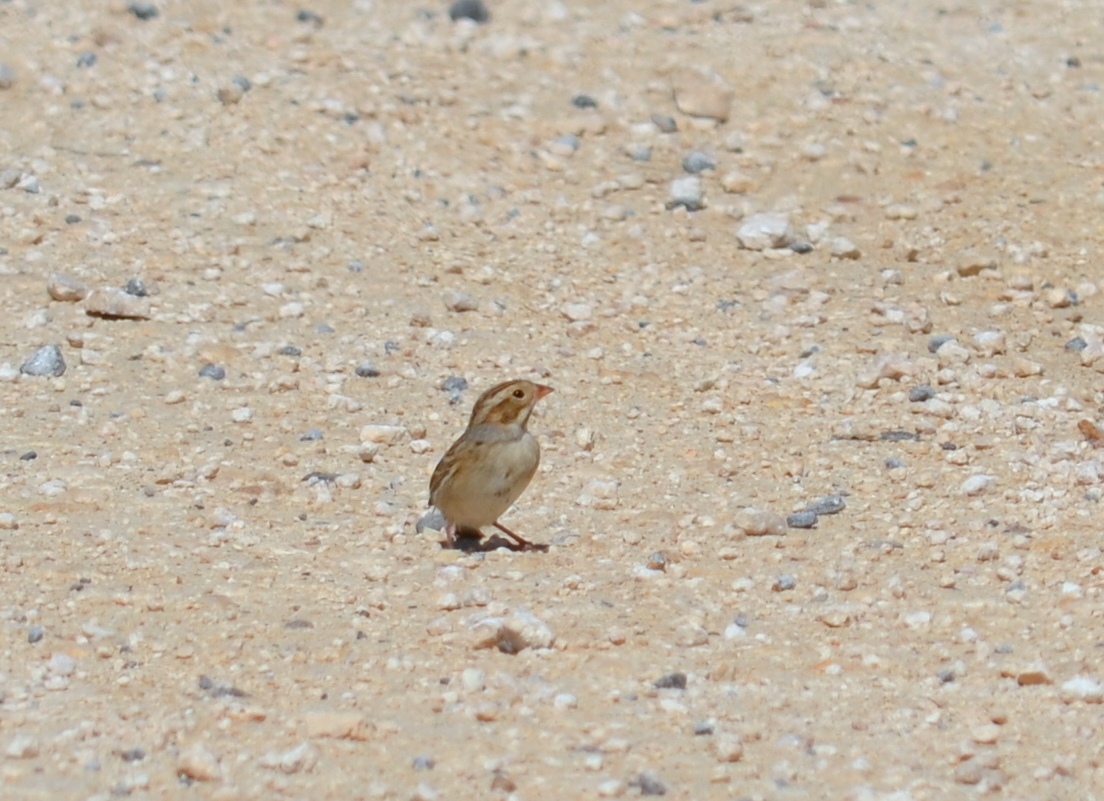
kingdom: Animalia
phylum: Chordata
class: Aves
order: Passeriformes
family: Passerellidae
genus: Spizella
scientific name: Spizella pallida
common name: Clay-colored sparrow
